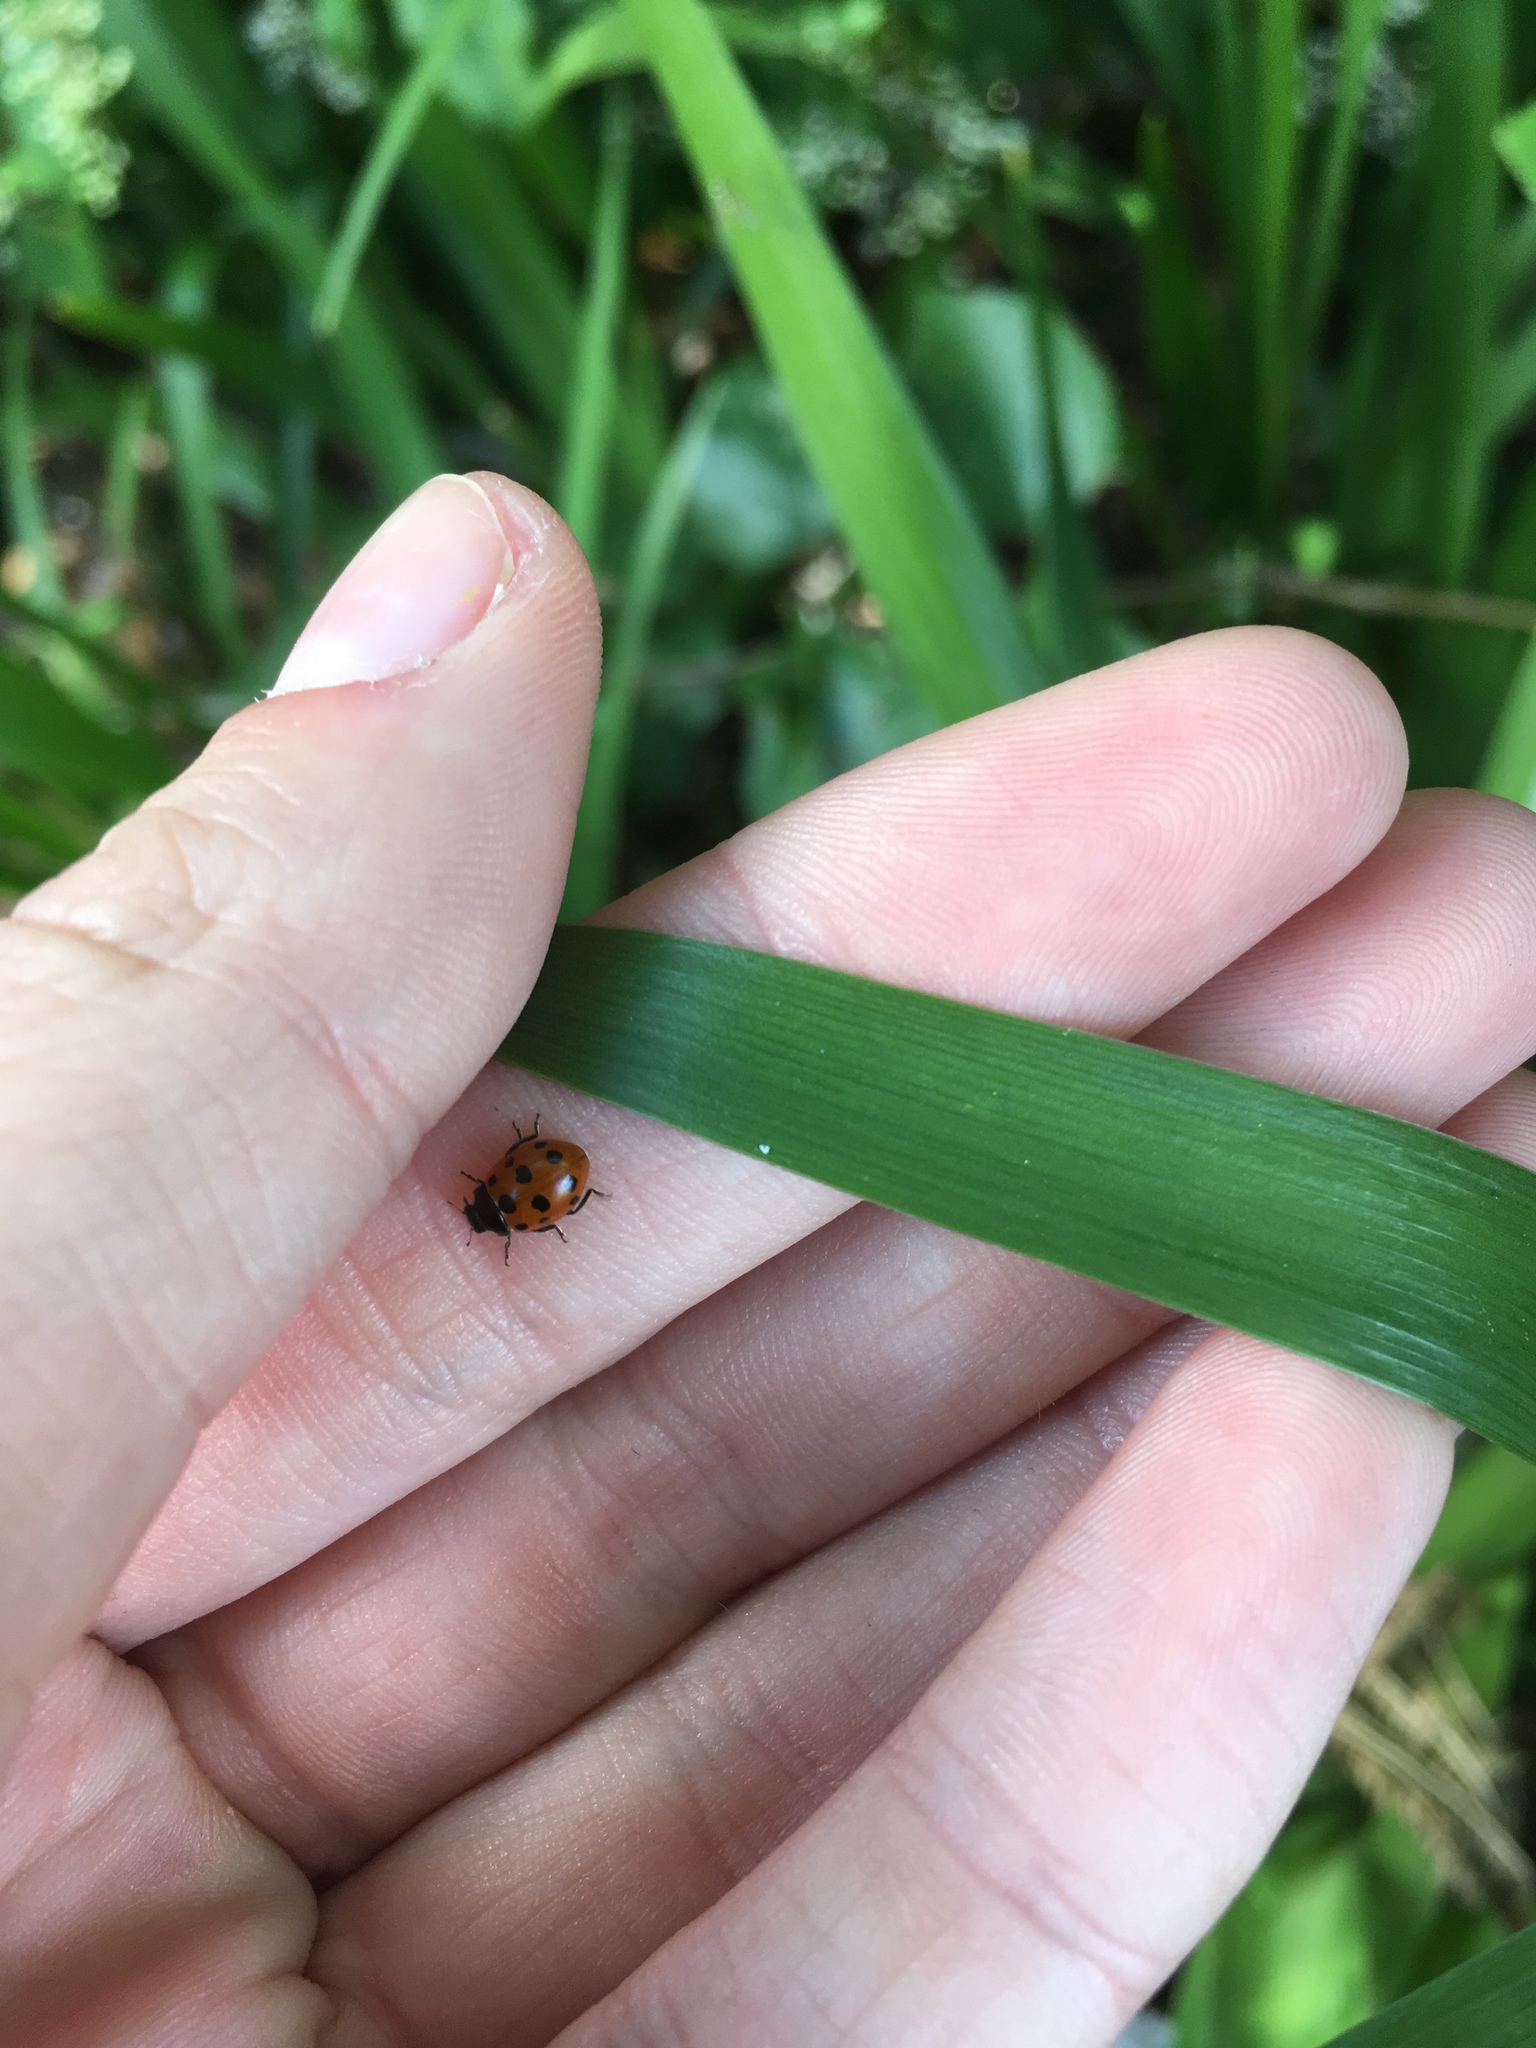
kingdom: Animalia
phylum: Arthropoda
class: Insecta
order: Coleoptera
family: Coccinellidae
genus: Coccinella
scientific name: Coccinella undecimpunctata
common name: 11-spot ladybird
